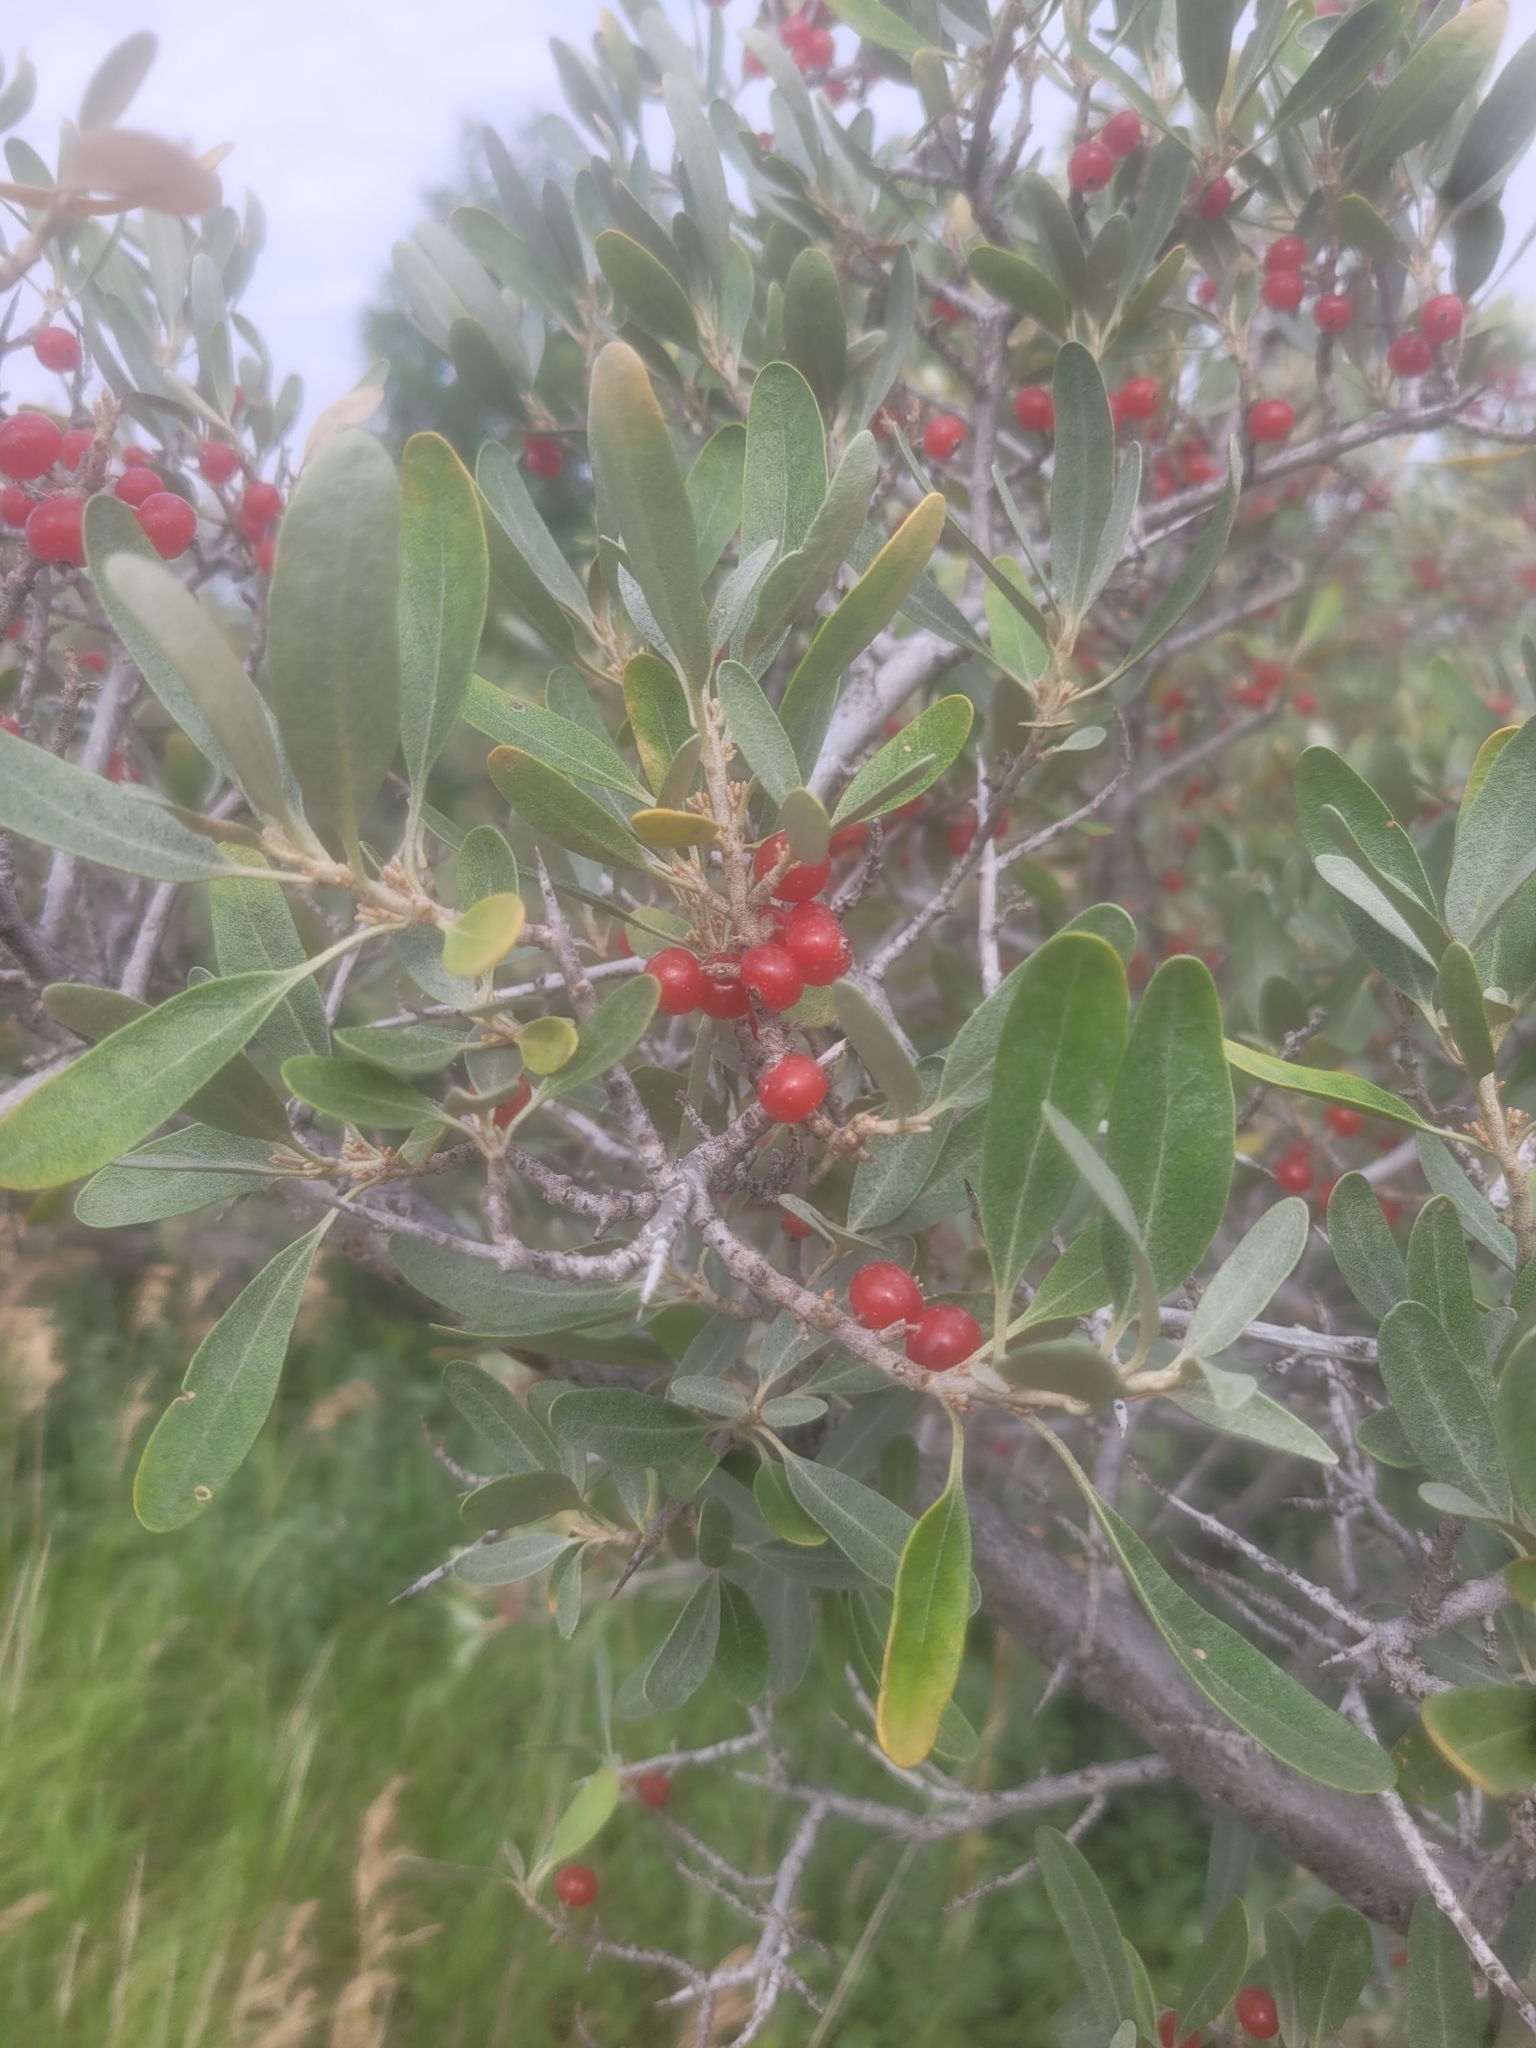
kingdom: Plantae
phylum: Tracheophyta
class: Magnoliopsida
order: Rosales
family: Elaeagnaceae
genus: Shepherdia
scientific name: Shepherdia argentea
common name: Silver buffaloberry
